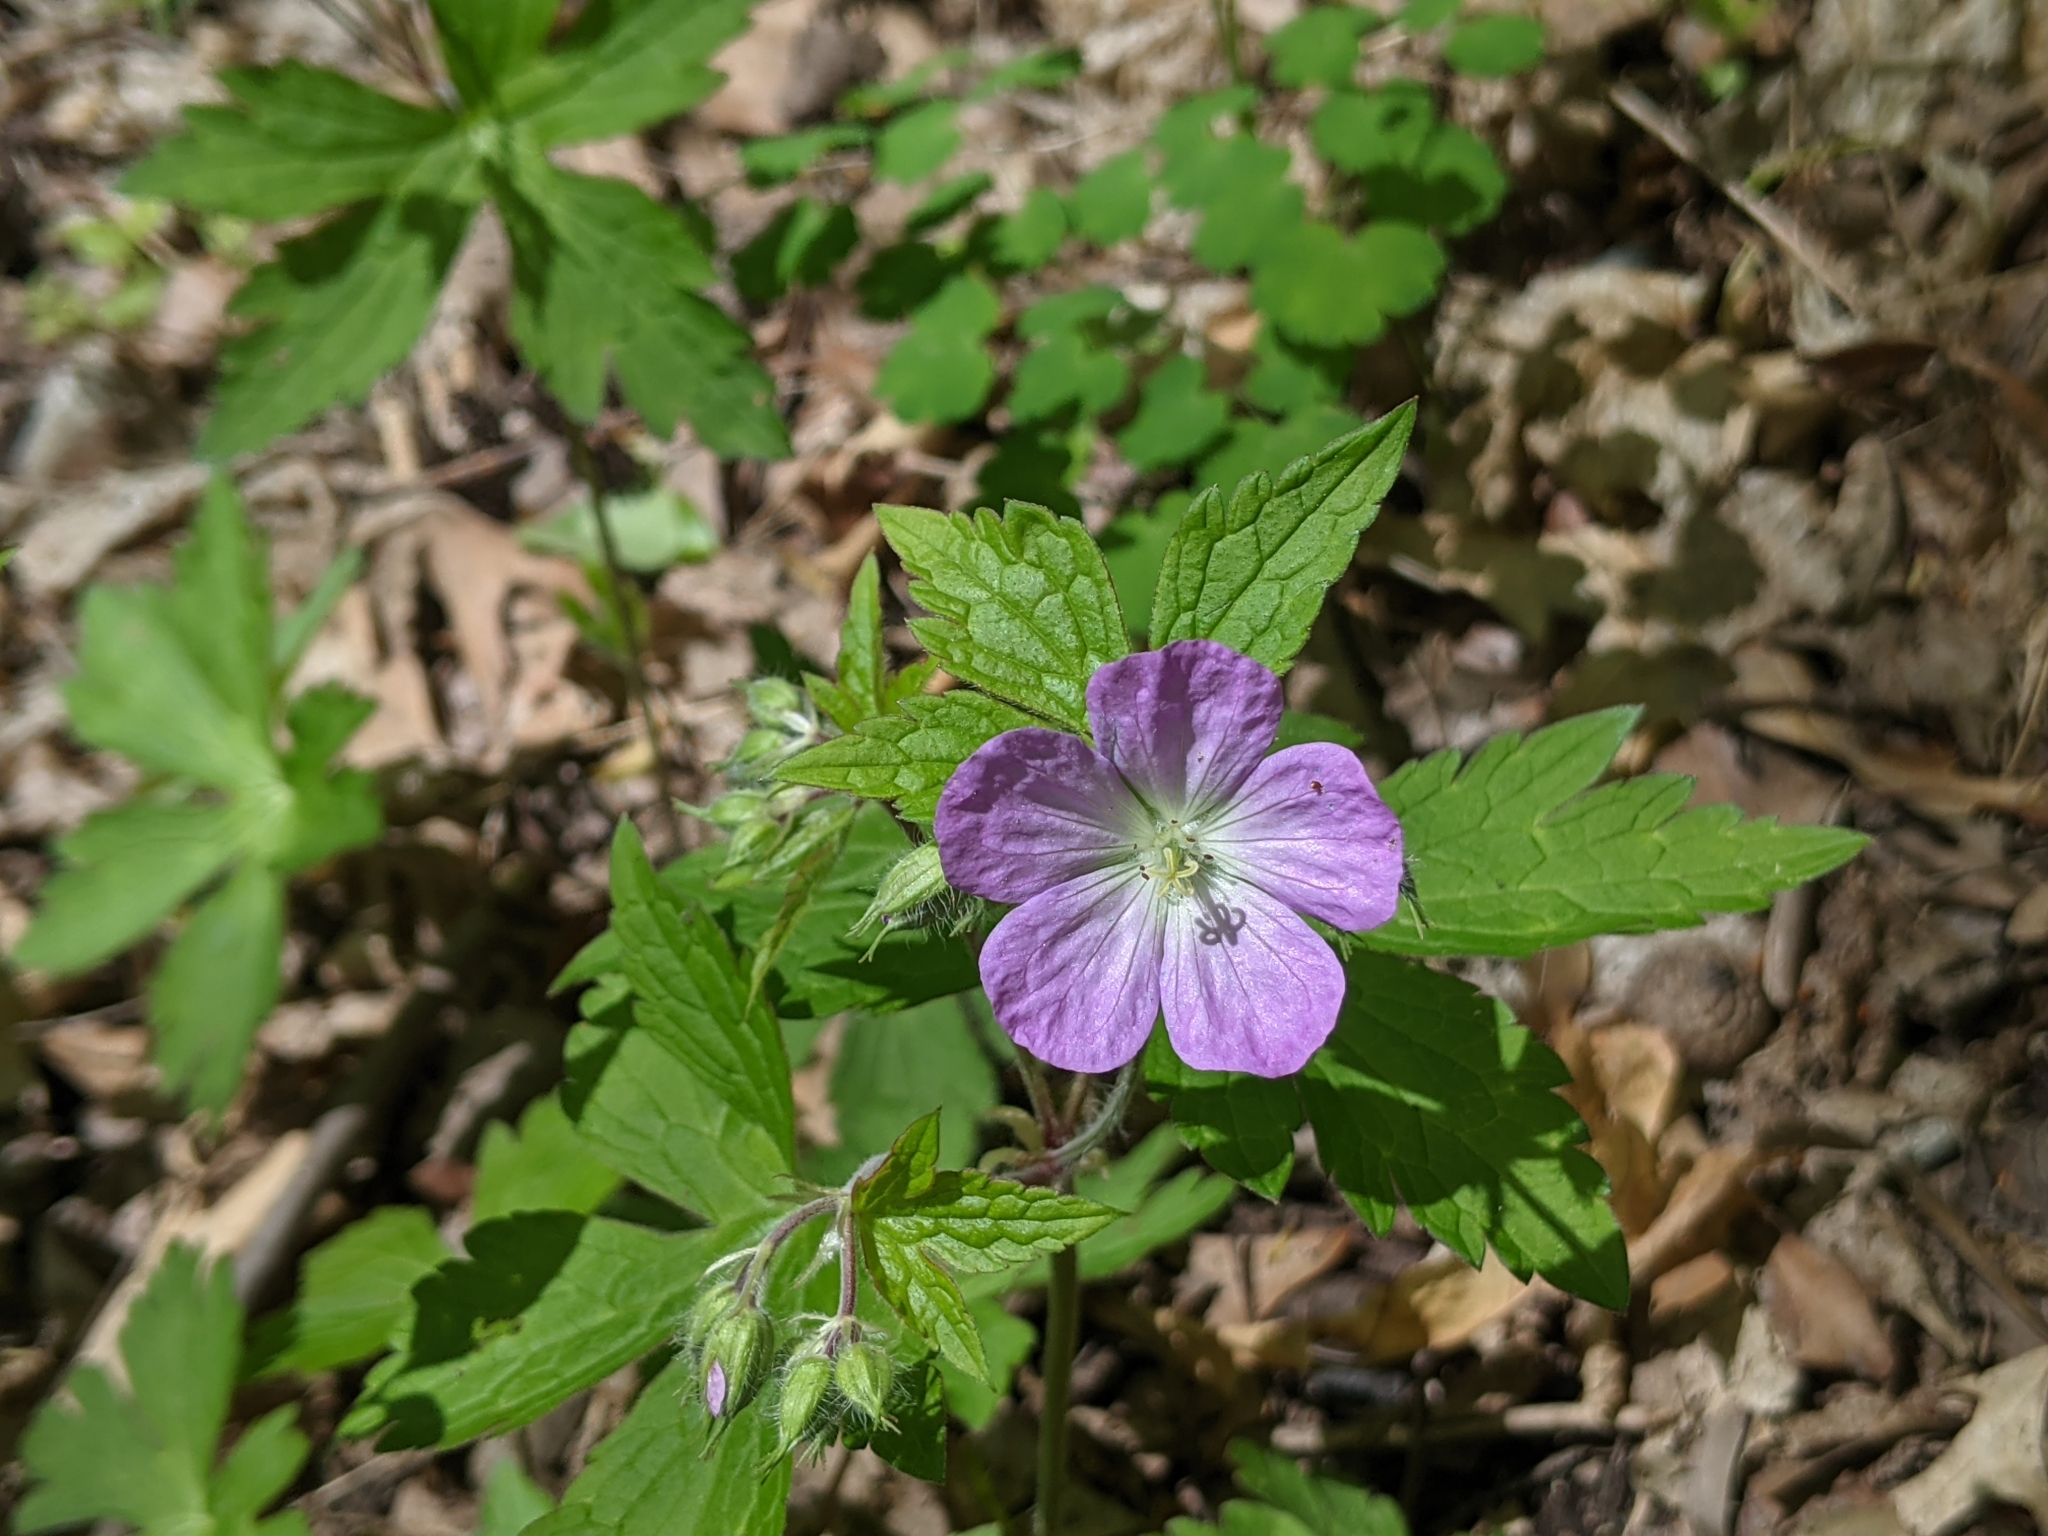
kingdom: Plantae
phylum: Tracheophyta
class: Magnoliopsida
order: Geraniales
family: Geraniaceae
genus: Geranium
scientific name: Geranium maculatum
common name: Spotted geranium
